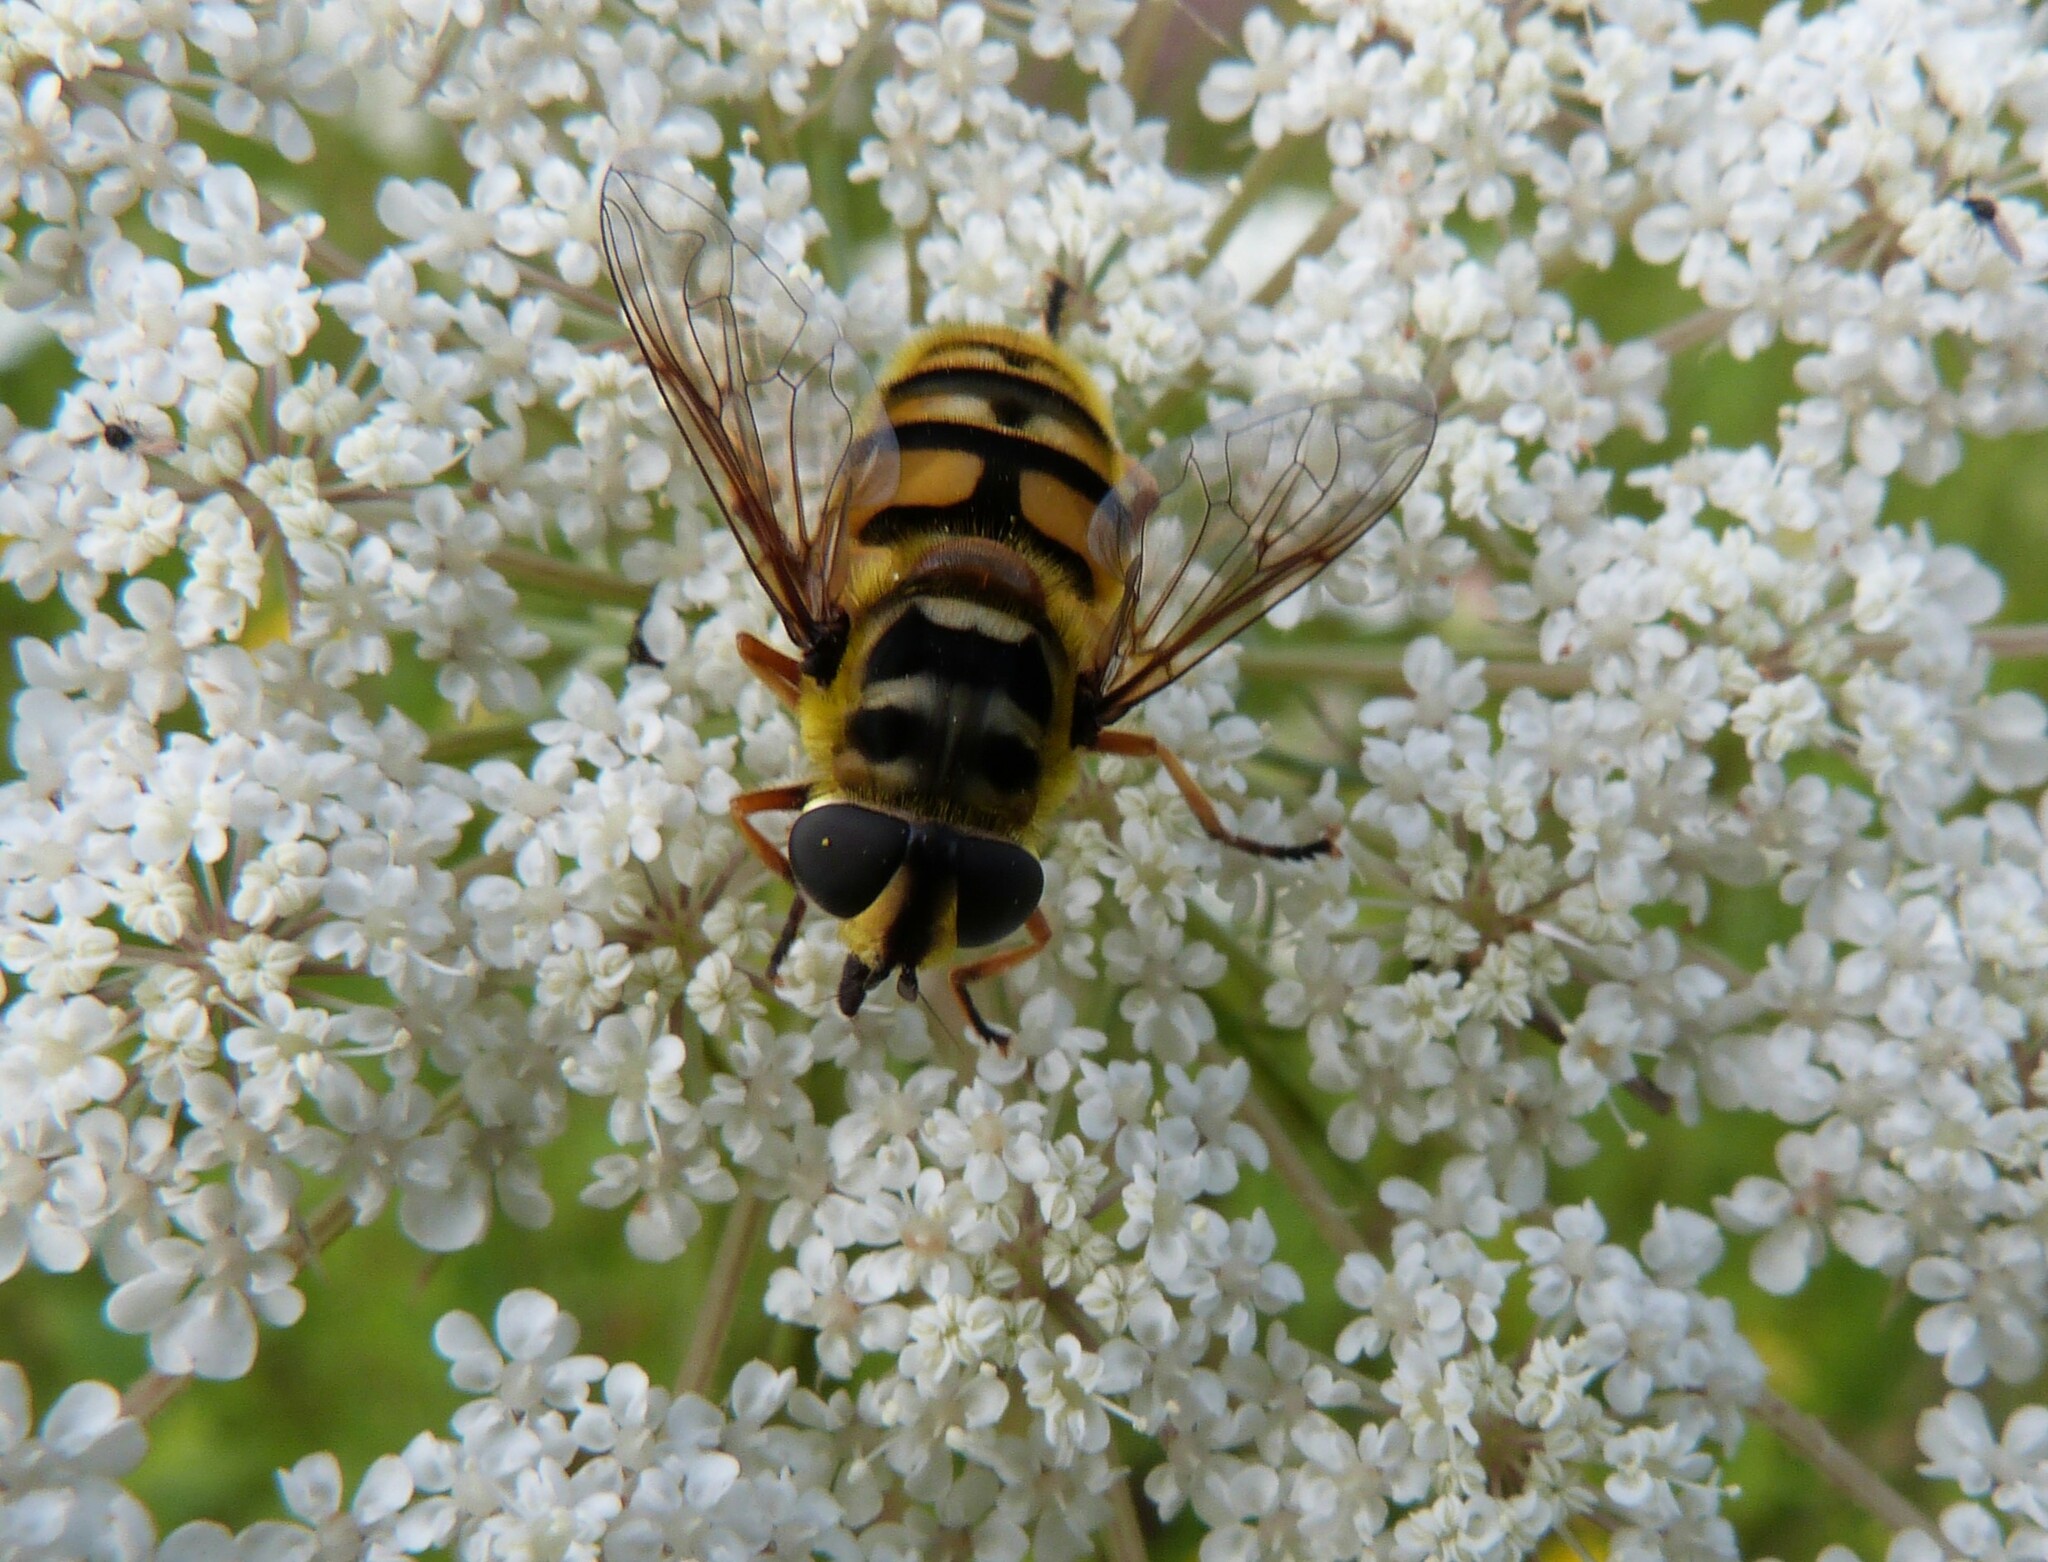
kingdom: Animalia
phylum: Arthropoda
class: Insecta
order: Diptera
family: Syrphidae
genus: Myathropa
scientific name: Myathropa florea
